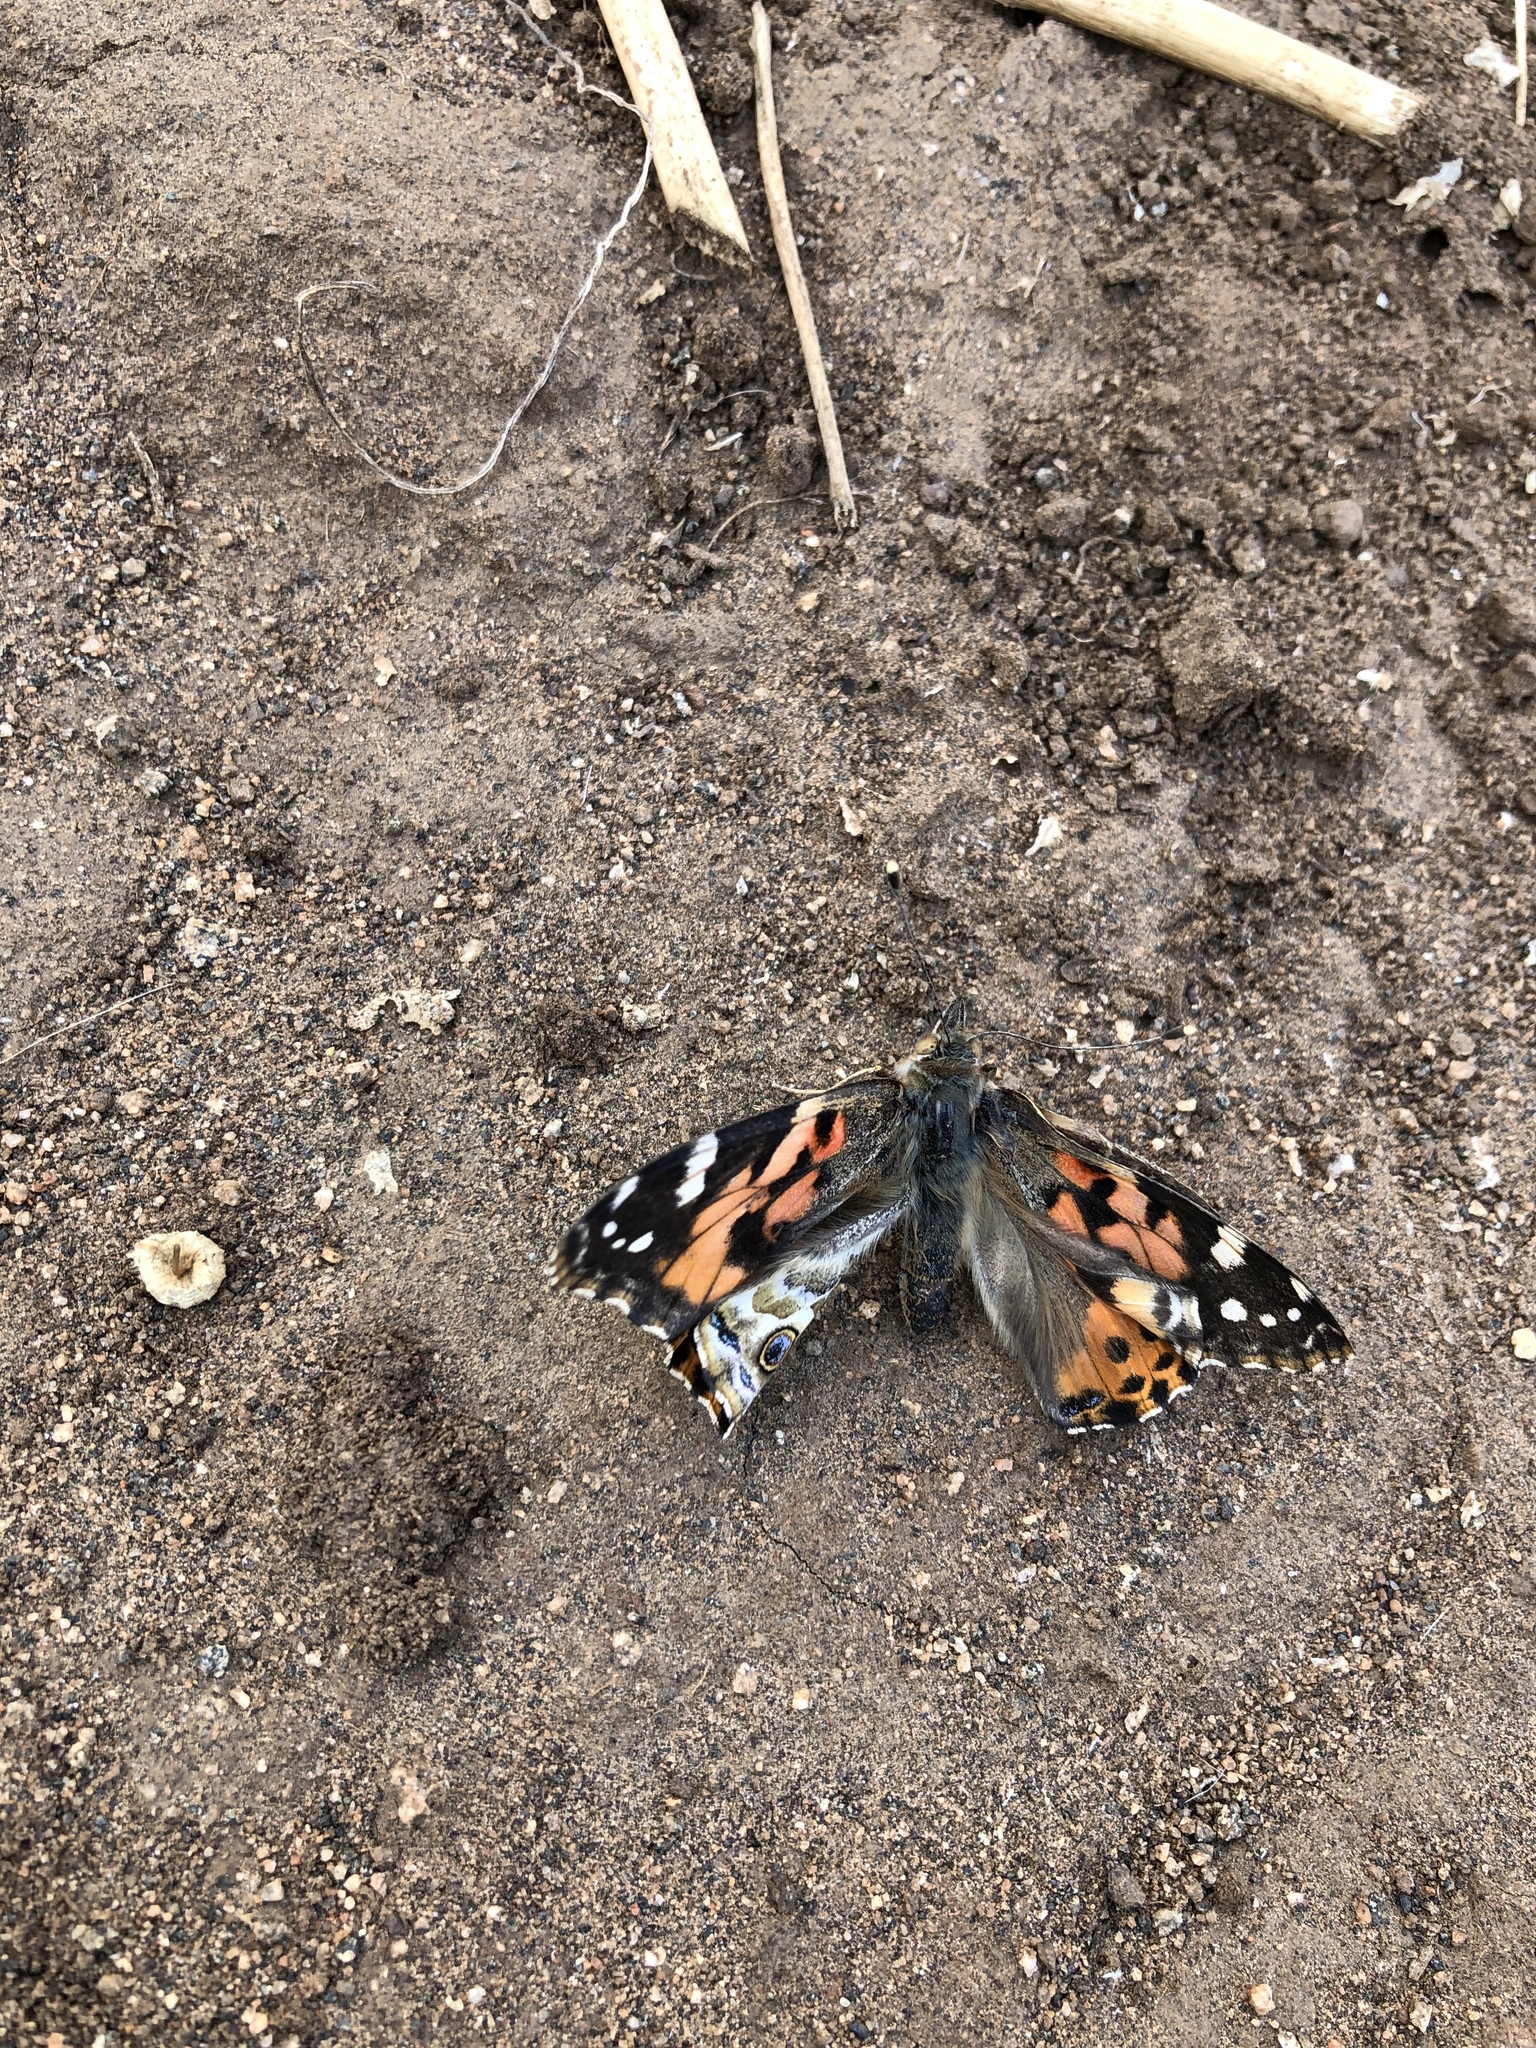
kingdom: Animalia
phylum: Arthropoda
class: Insecta
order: Lepidoptera
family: Nymphalidae
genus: Vanessa
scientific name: Vanessa cardui
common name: Painted lady
